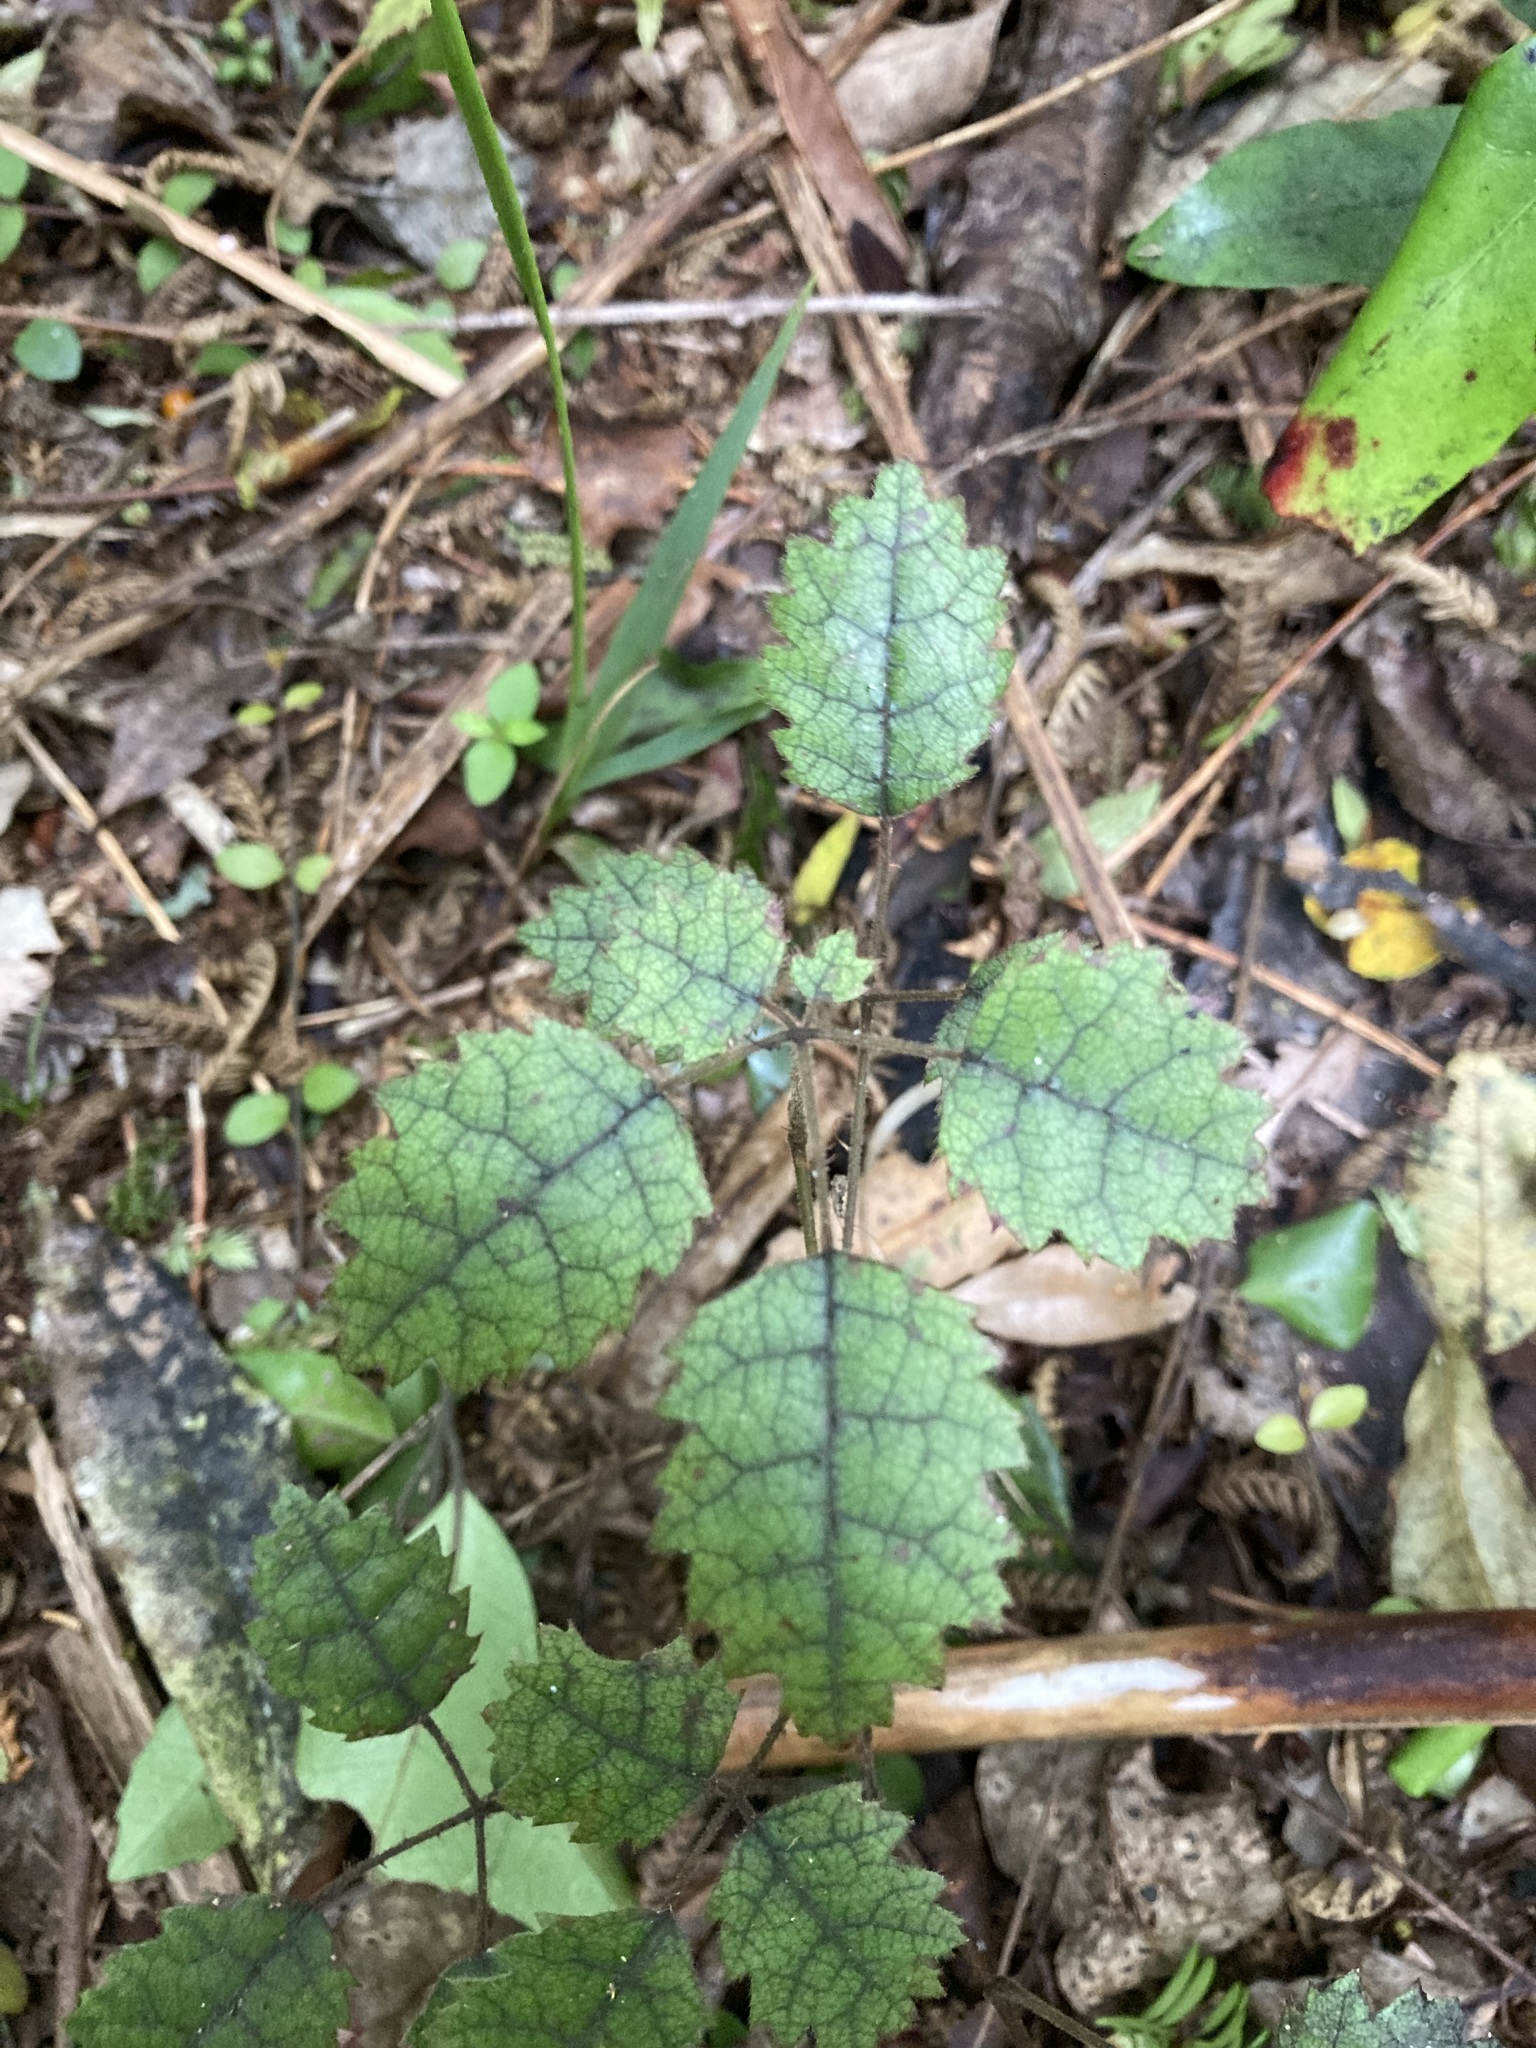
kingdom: Plantae
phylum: Tracheophyta
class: Magnoliopsida
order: Rosales
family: Rosaceae
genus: Rubus
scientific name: Rubus australis
